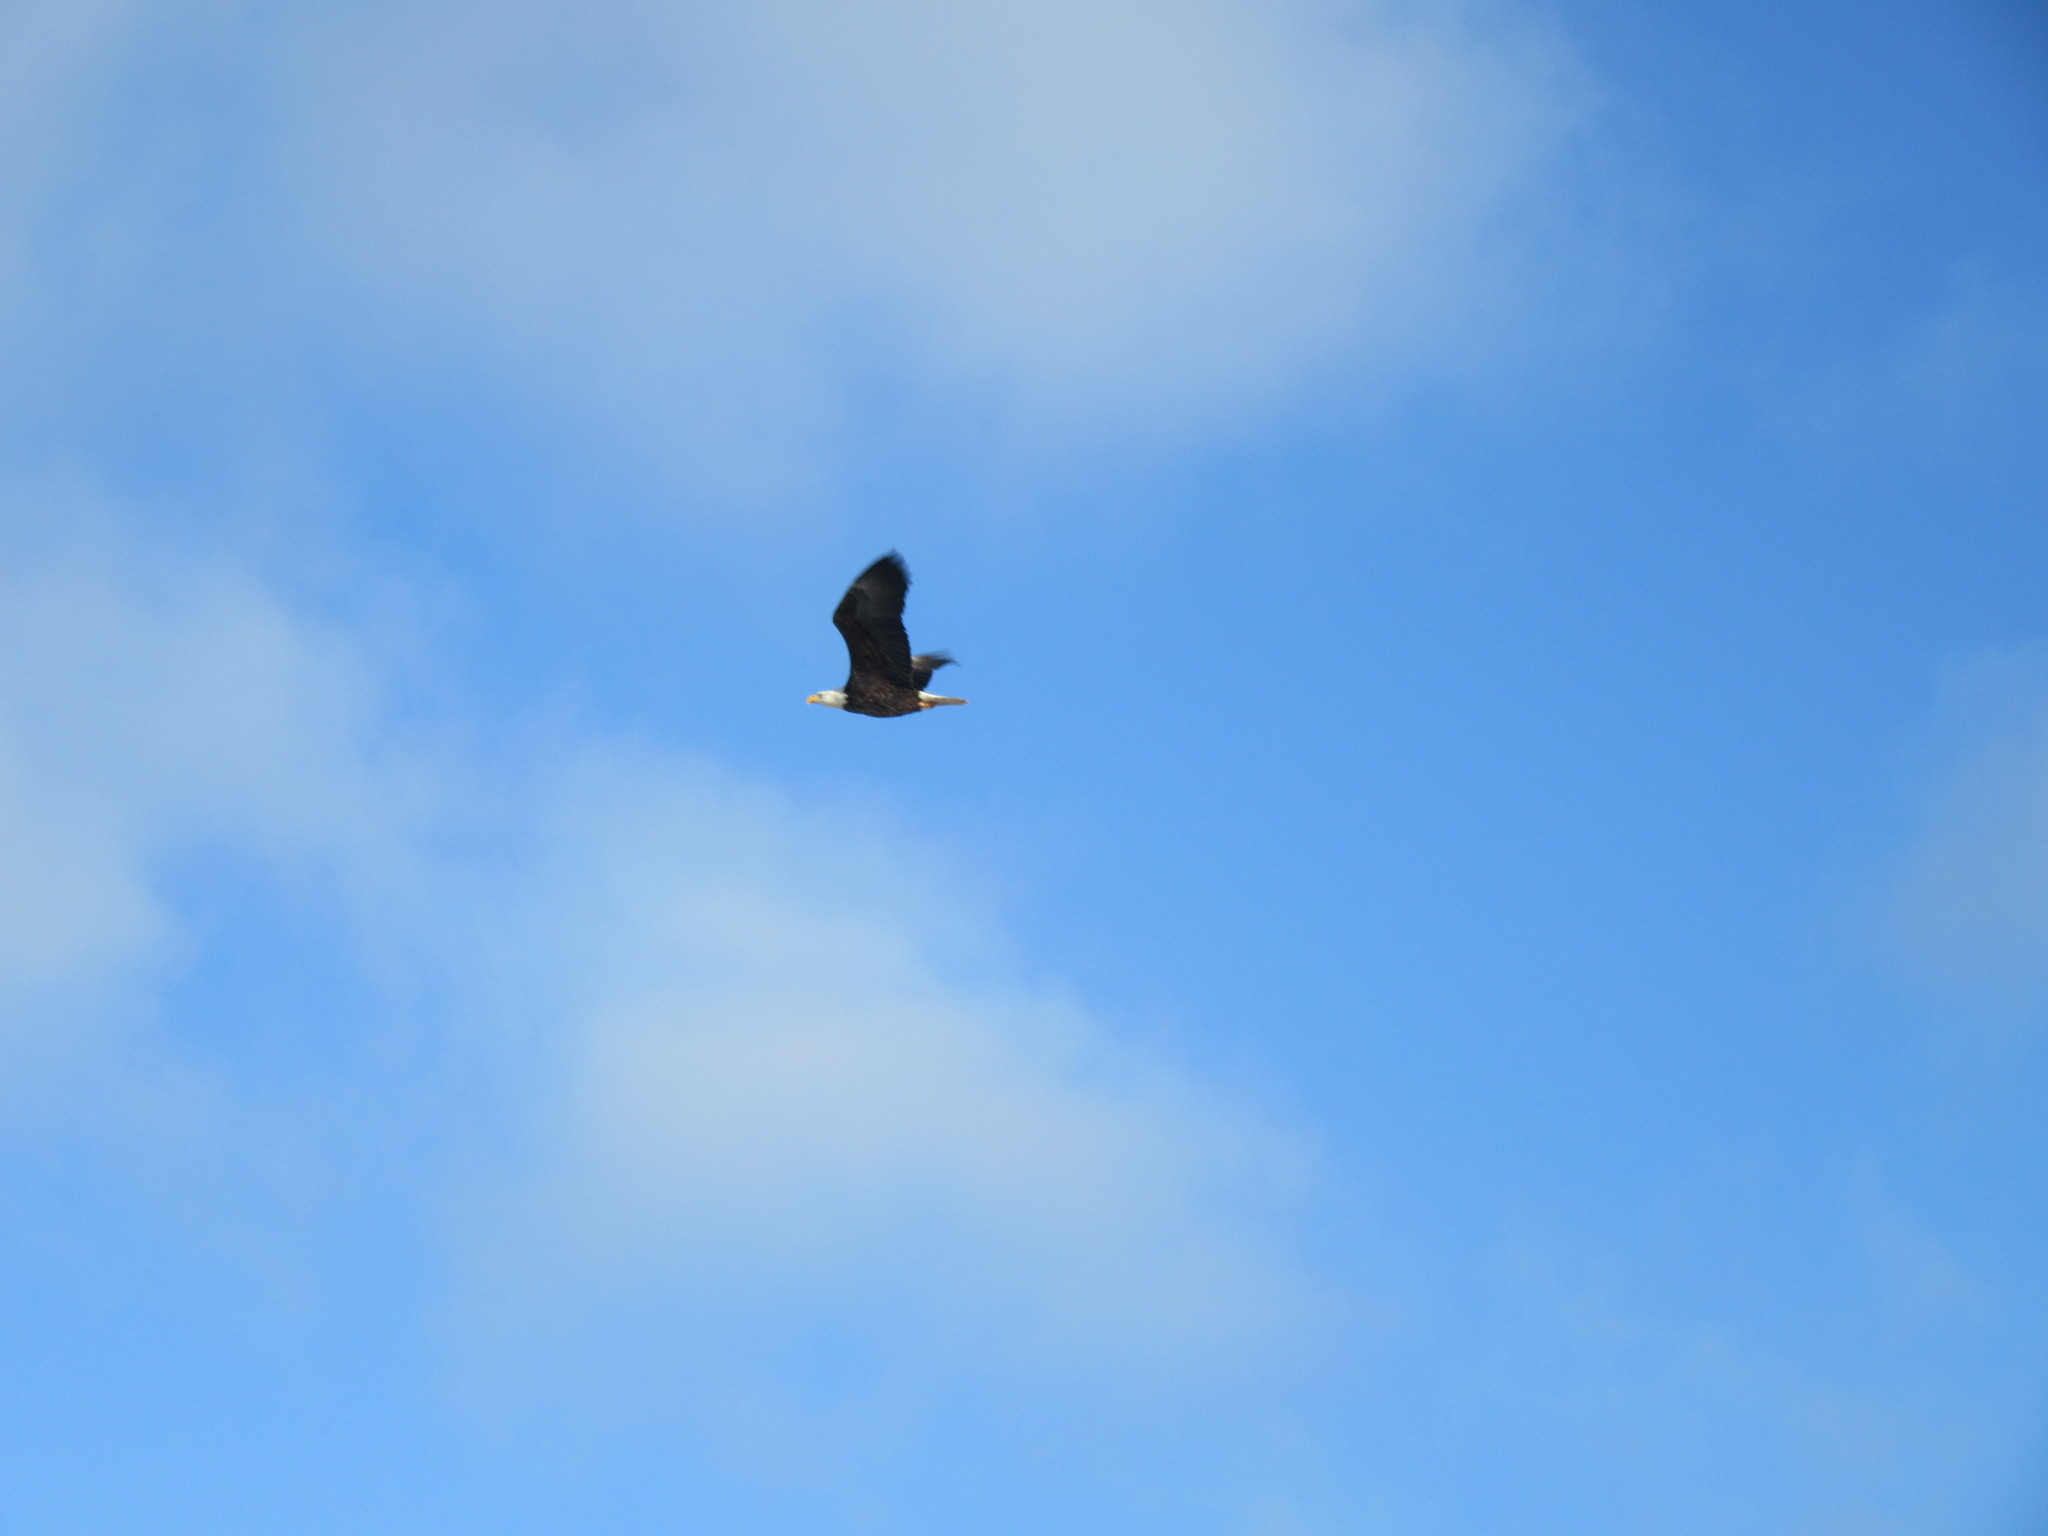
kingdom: Animalia
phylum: Chordata
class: Aves
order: Accipitriformes
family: Accipitridae
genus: Haliaeetus
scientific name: Haliaeetus leucocephalus
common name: Bald eagle
